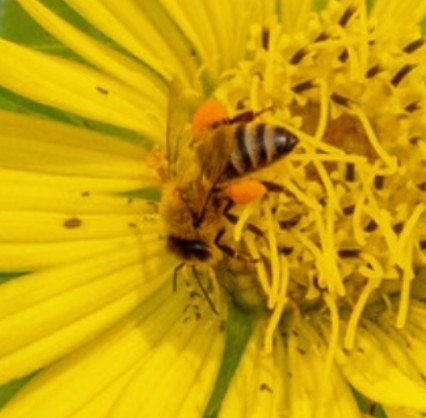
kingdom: Animalia
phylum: Arthropoda
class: Insecta
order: Hymenoptera
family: Apidae
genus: Apis
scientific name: Apis mellifera
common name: Honey bee
